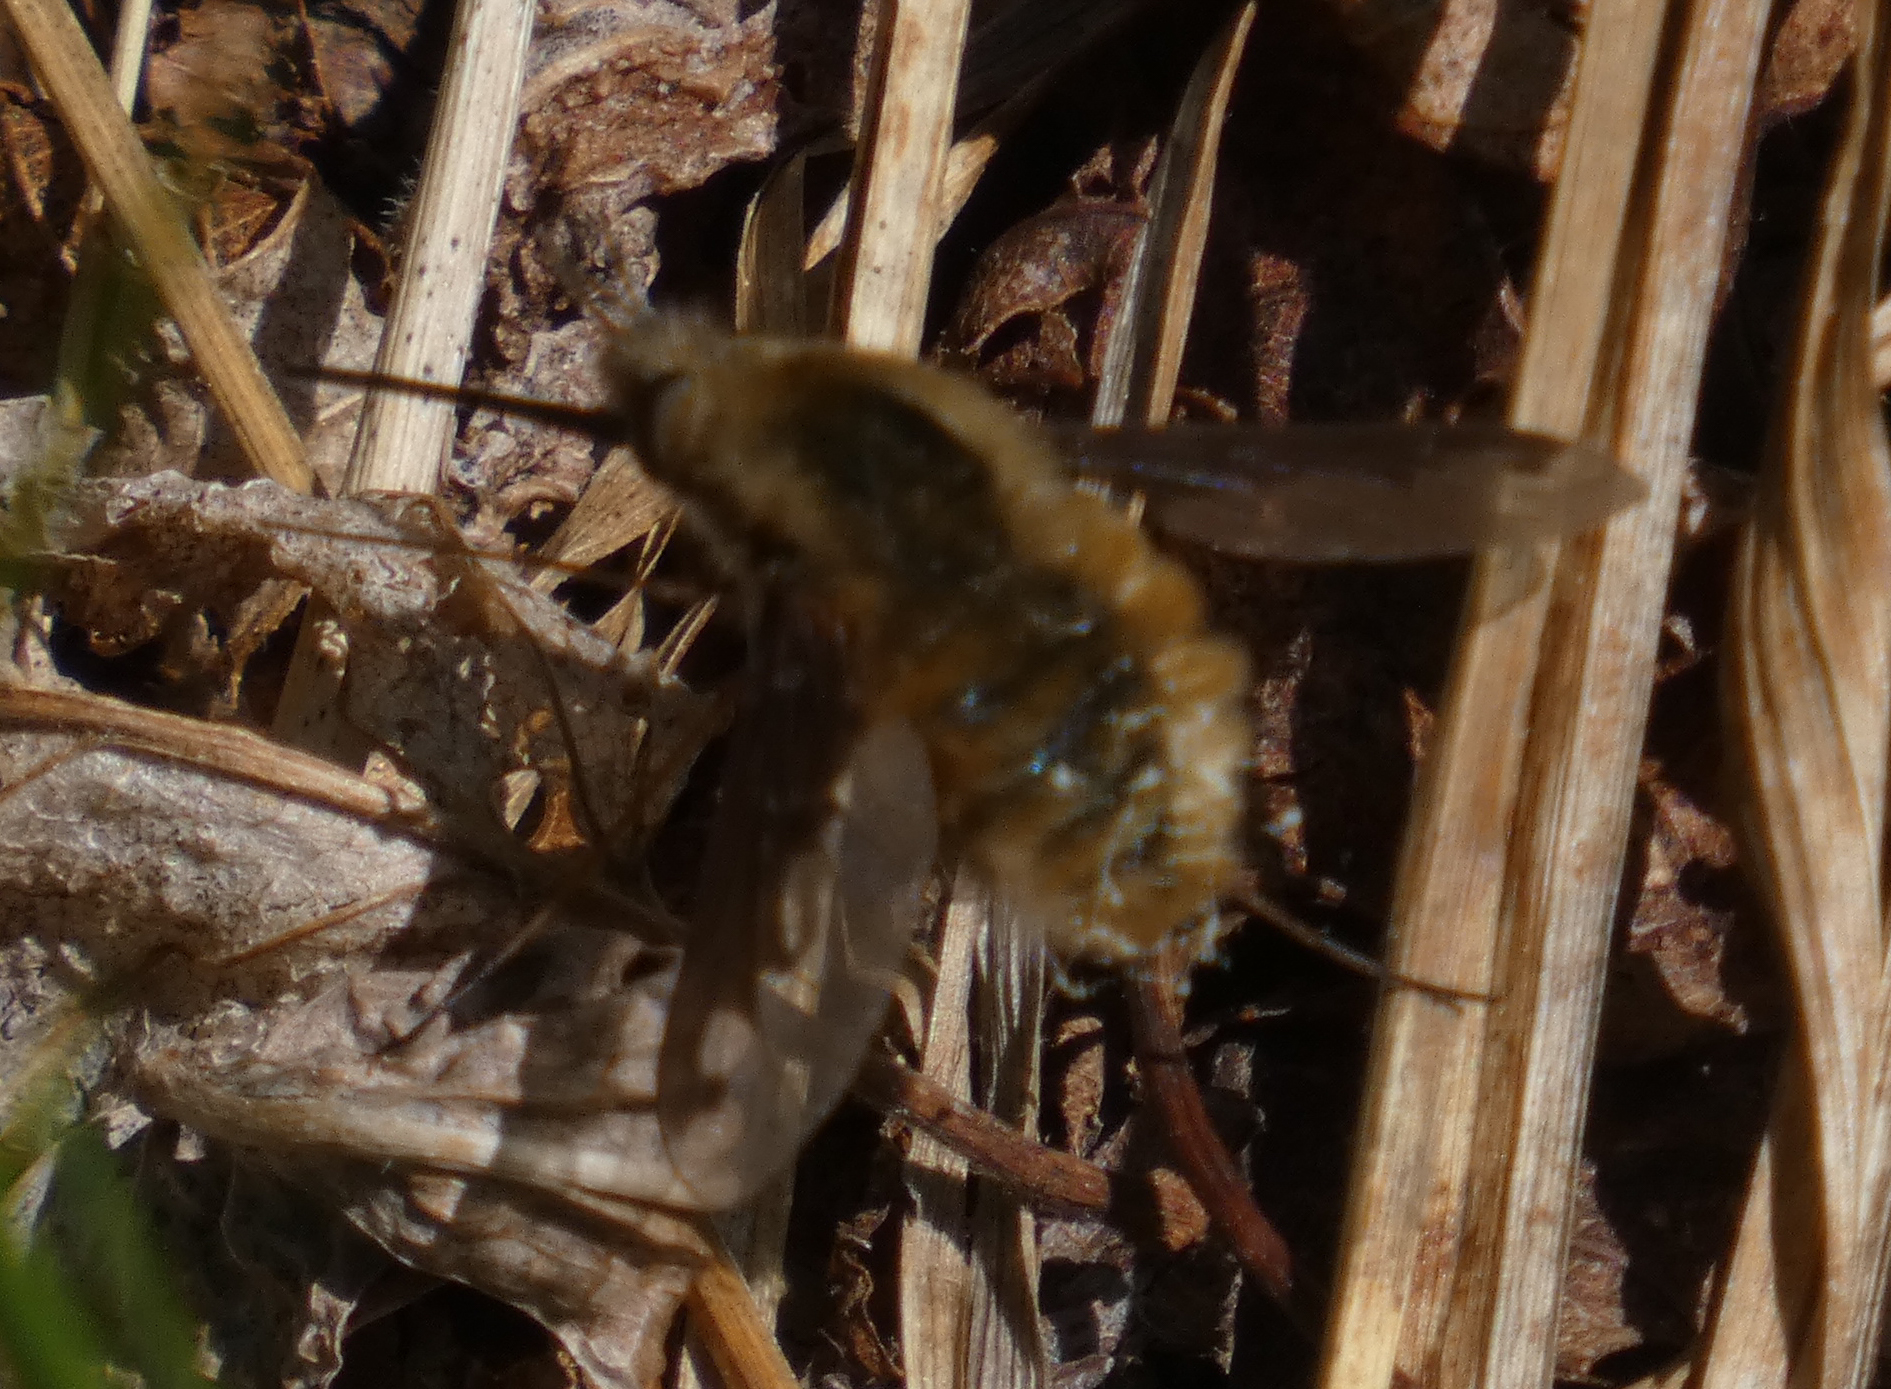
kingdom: Animalia
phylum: Arthropoda
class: Insecta
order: Diptera
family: Bombyliidae
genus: Bombylius
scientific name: Bombylius major
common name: Bee fly
